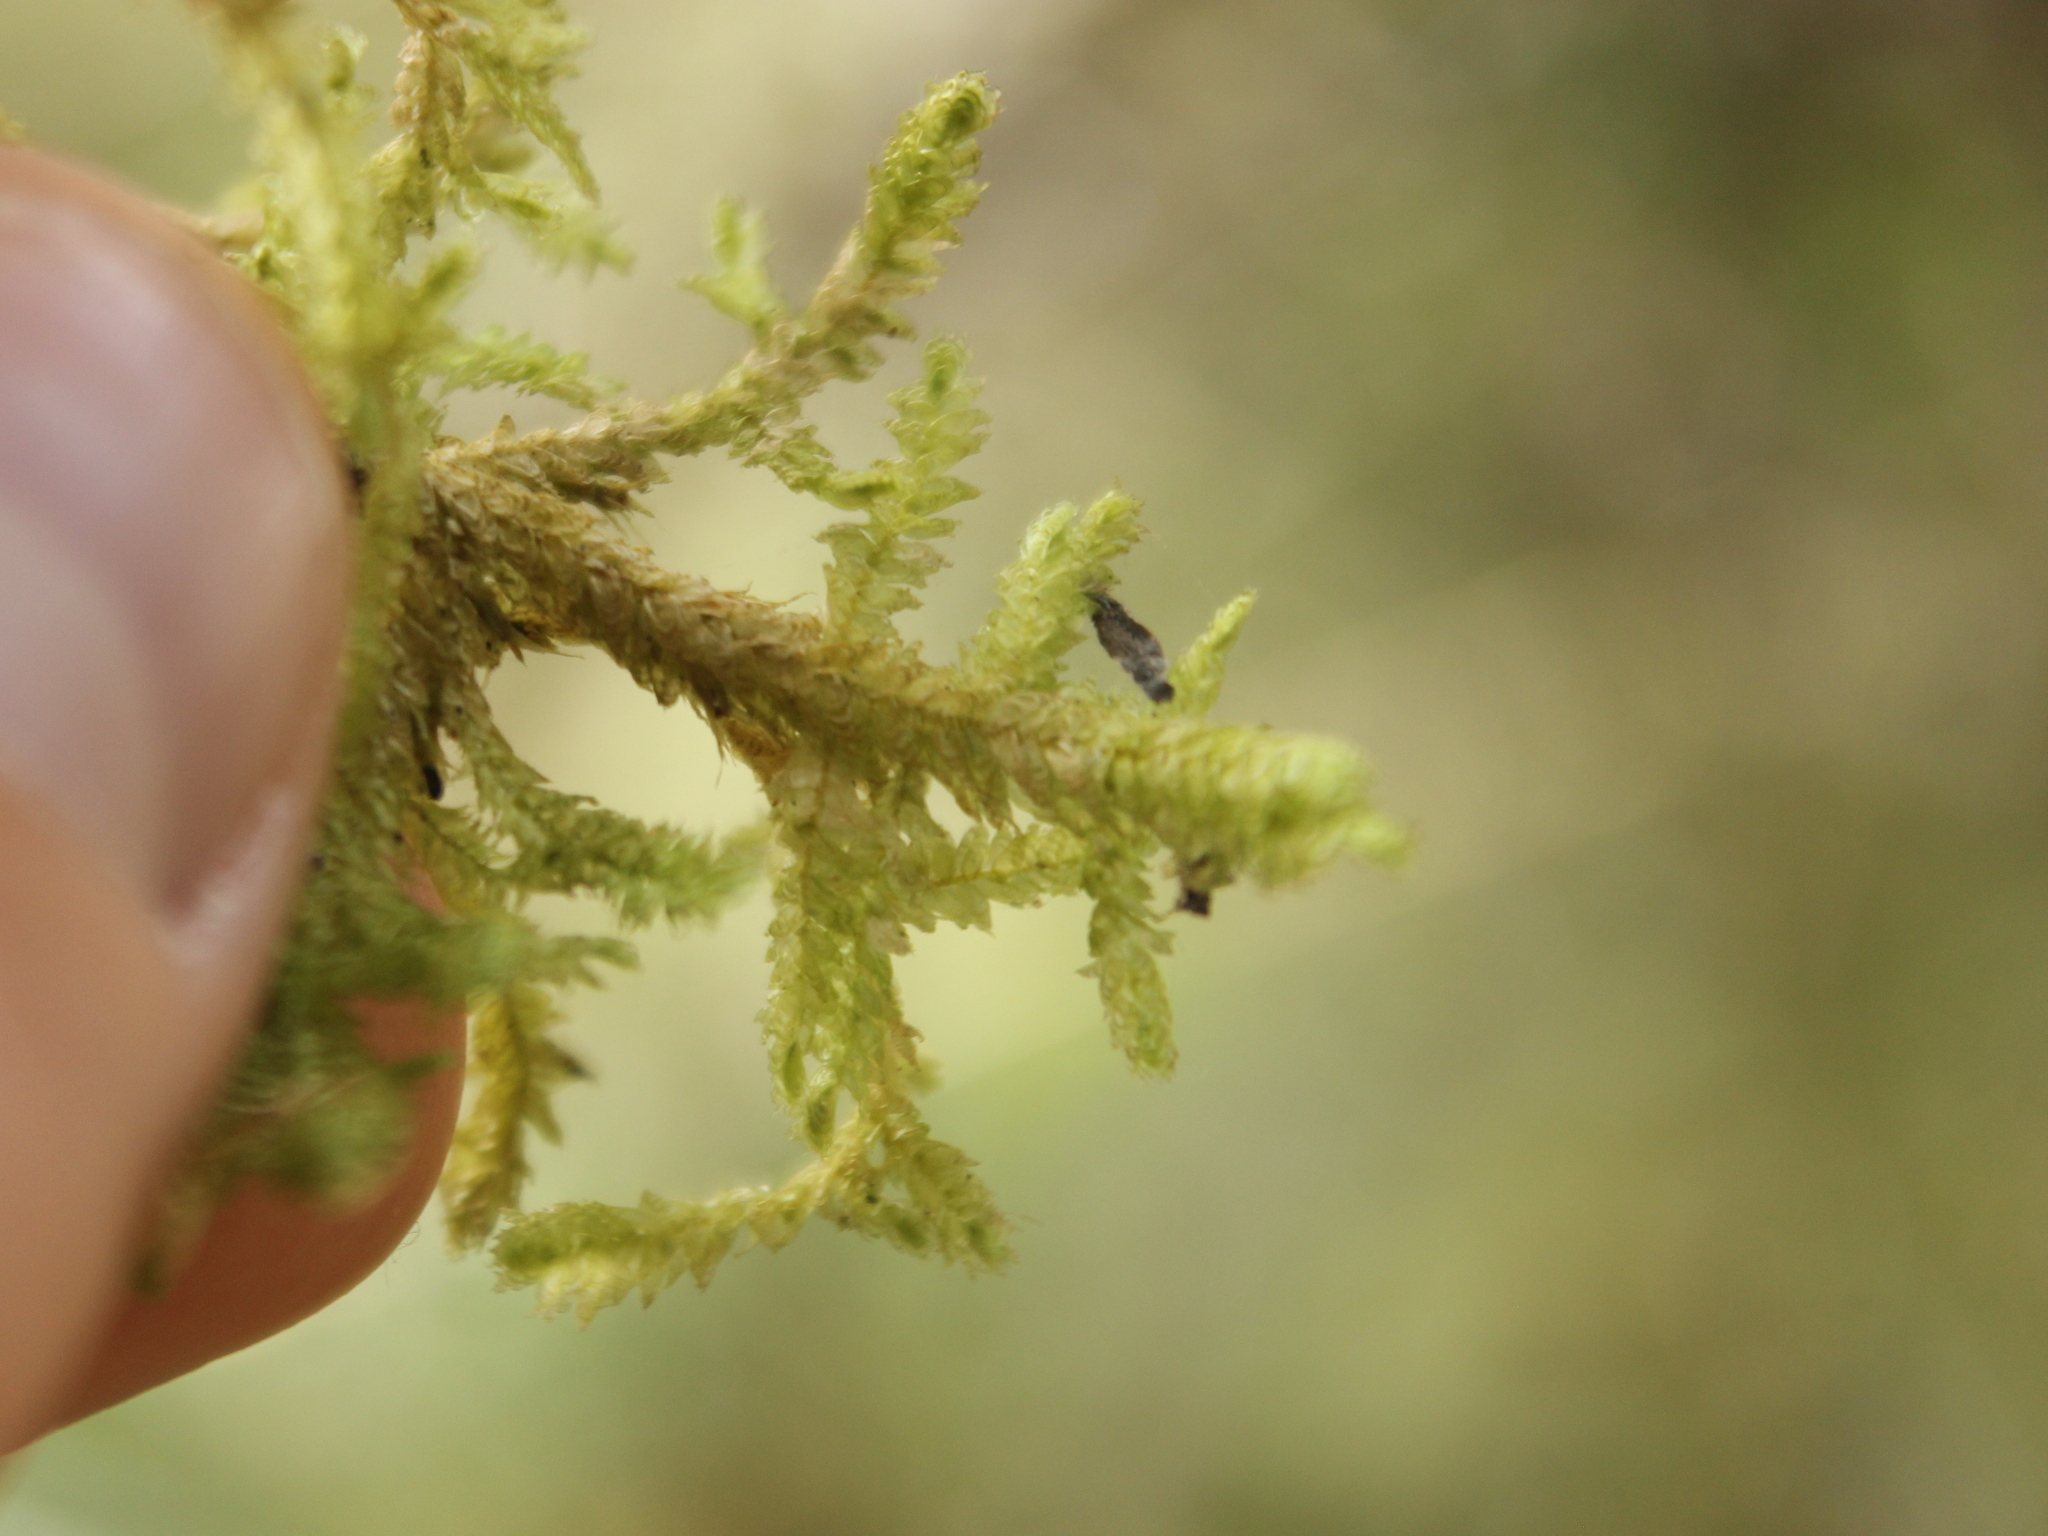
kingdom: Plantae
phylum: Bryophyta
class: Bryopsida
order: Hypnales
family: Neckeraceae
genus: Alleniella
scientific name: Alleniella hymenodonta
